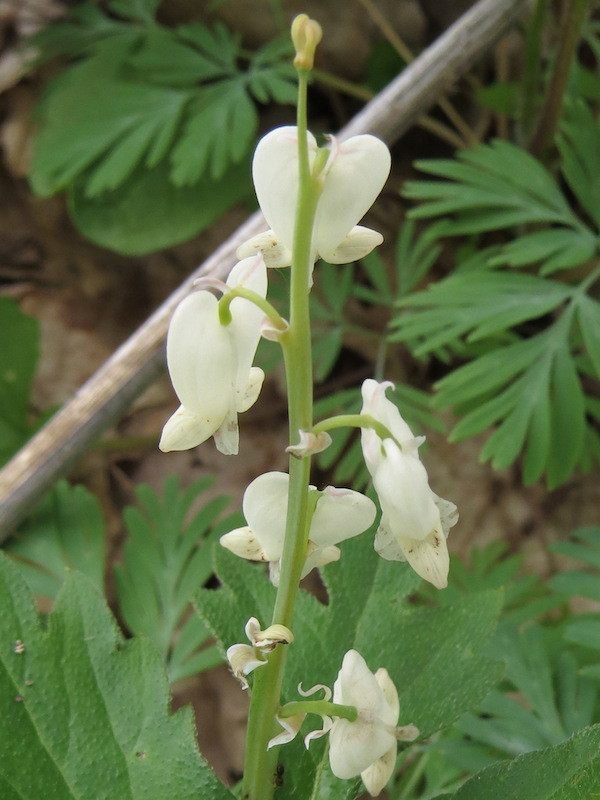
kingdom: Plantae
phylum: Tracheophyta
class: Magnoliopsida
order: Ranunculales
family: Papaveraceae
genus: Dicentra
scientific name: Dicentra canadensis
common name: Squirrel-corn
